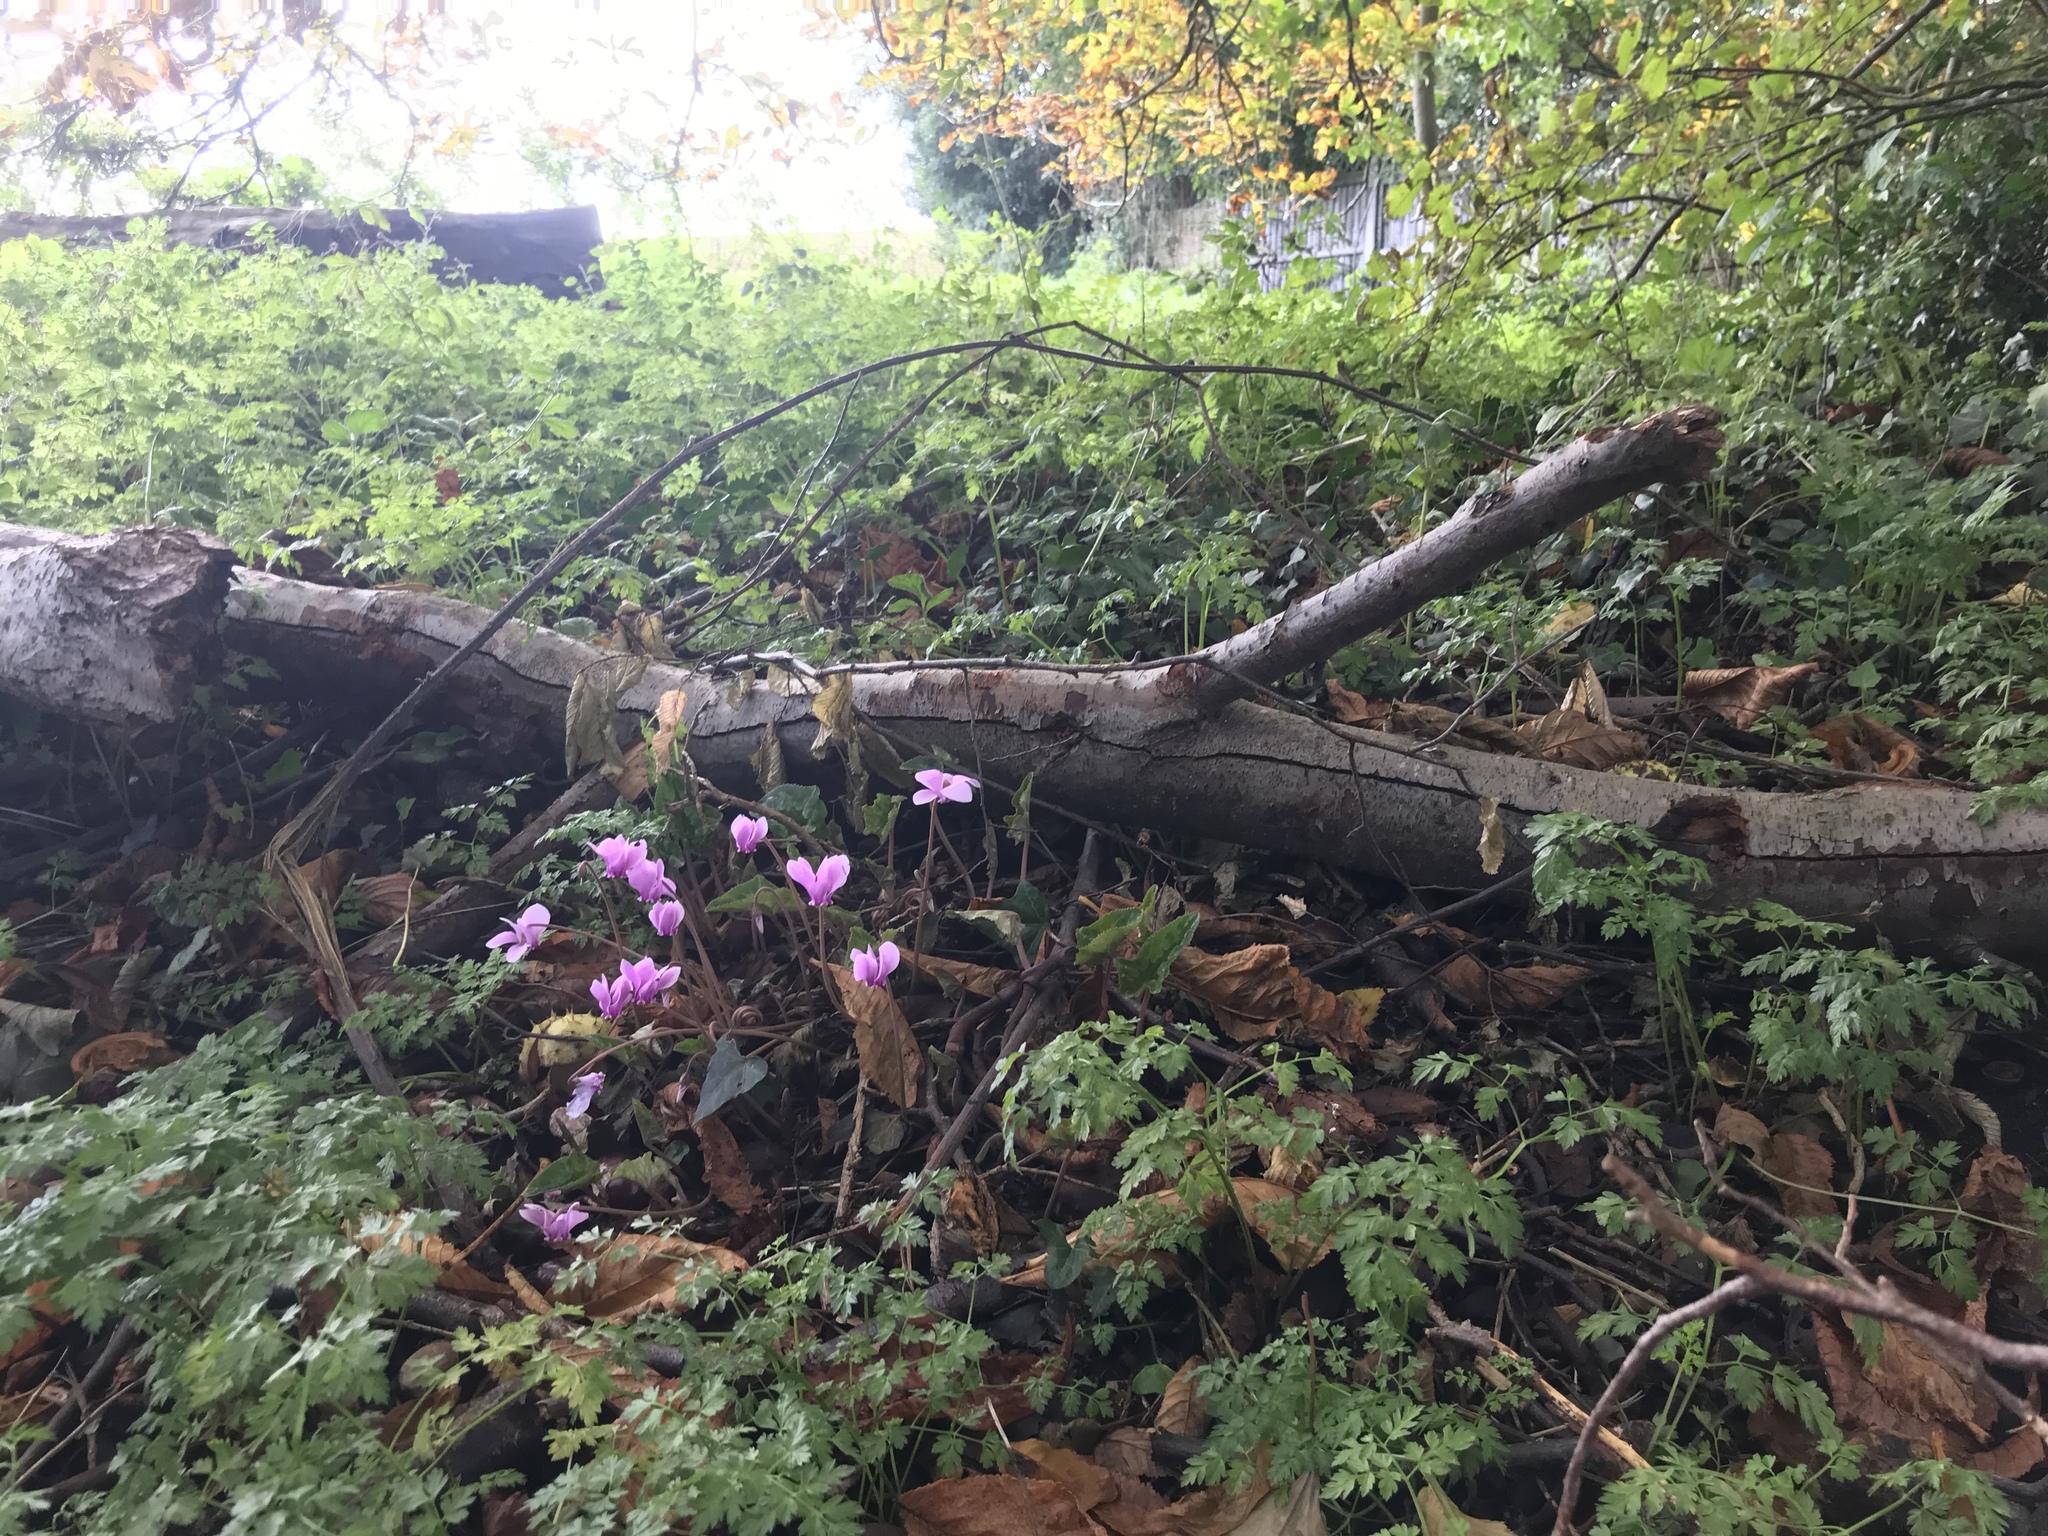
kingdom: Plantae
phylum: Tracheophyta
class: Magnoliopsida
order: Ericales
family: Primulaceae
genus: Cyclamen
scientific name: Cyclamen hederifolium
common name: Sowbread
